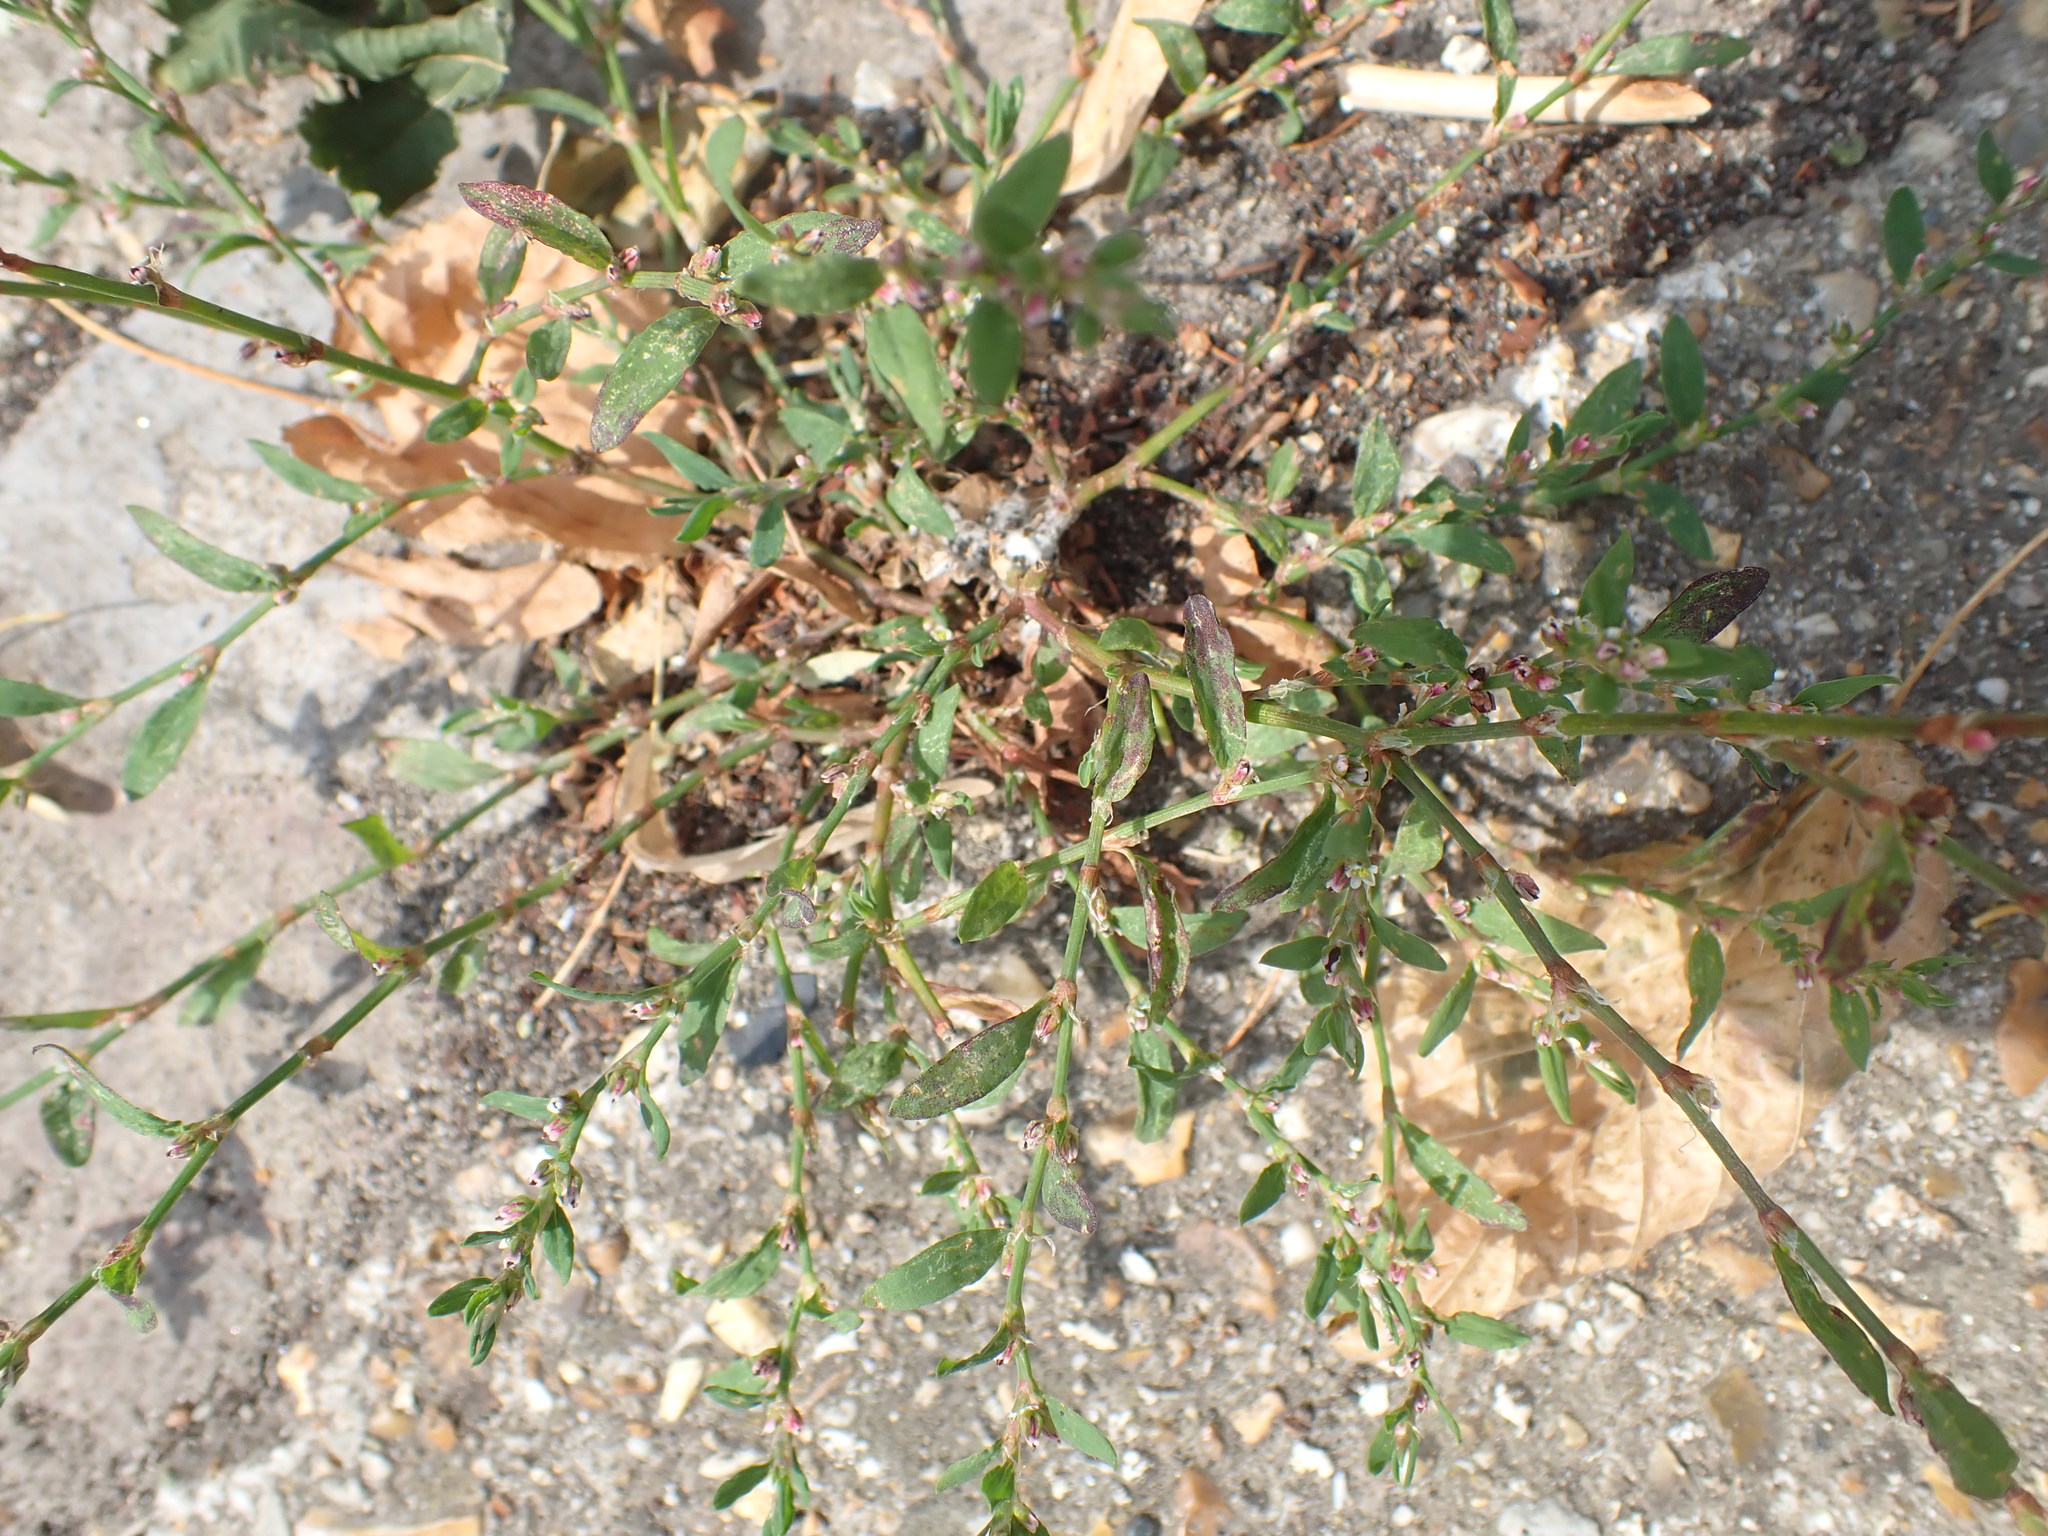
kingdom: Plantae
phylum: Tracheophyta
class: Magnoliopsida
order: Caryophyllales
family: Polygonaceae
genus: Polygonum
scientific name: Polygonum aviculare
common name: Prostrate knotweed
